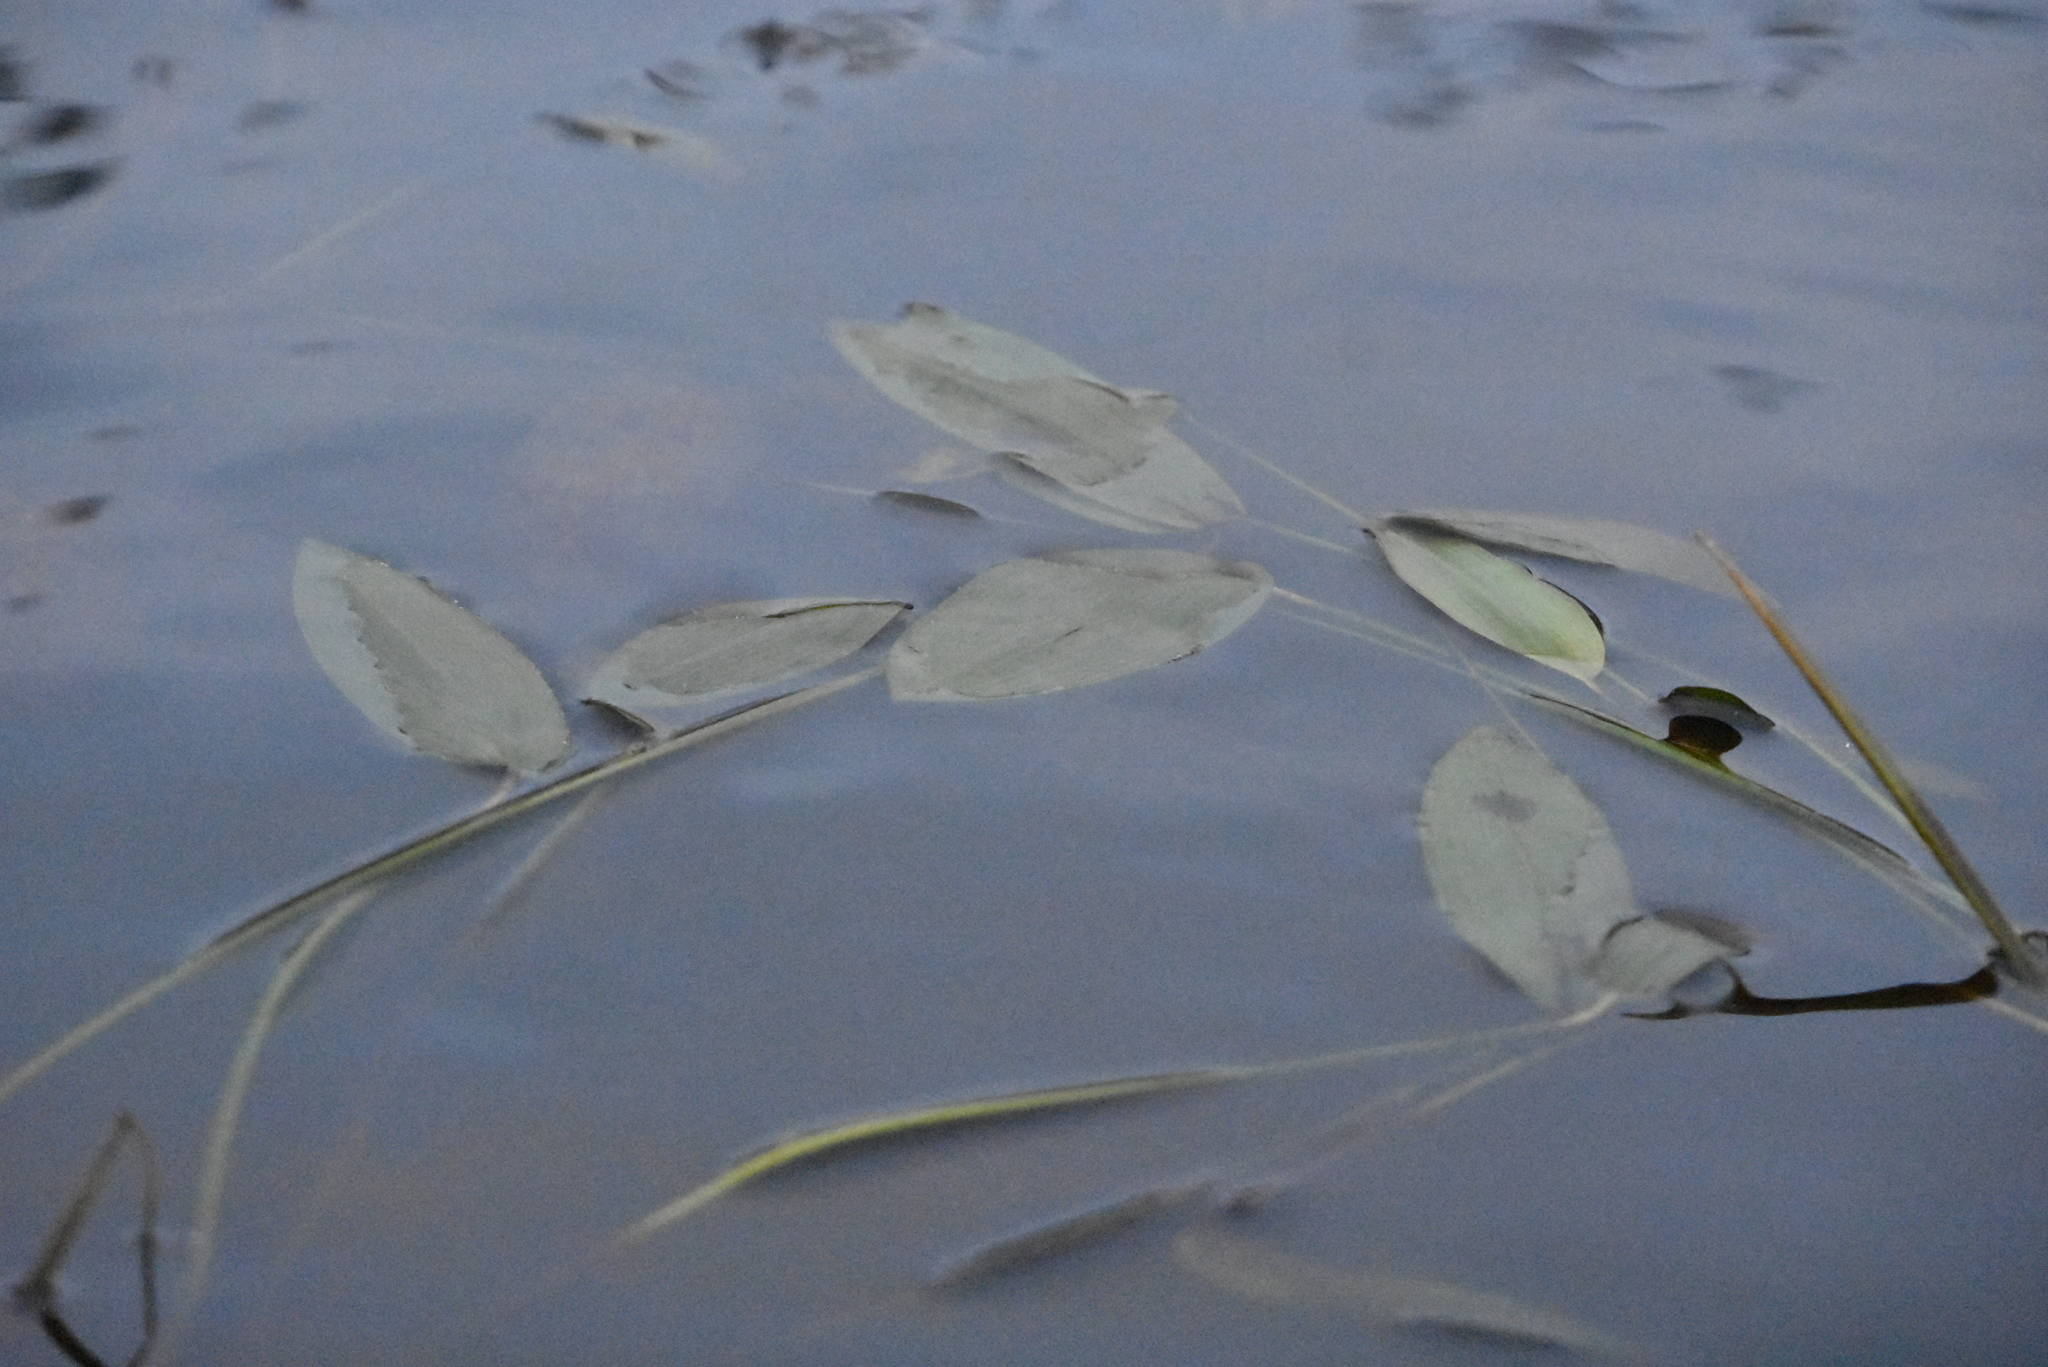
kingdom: Plantae
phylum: Tracheophyta
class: Liliopsida
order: Alismatales
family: Potamogetonaceae
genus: Potamogeton
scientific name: Potamogeton natans
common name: Broad-leaved pondweed
